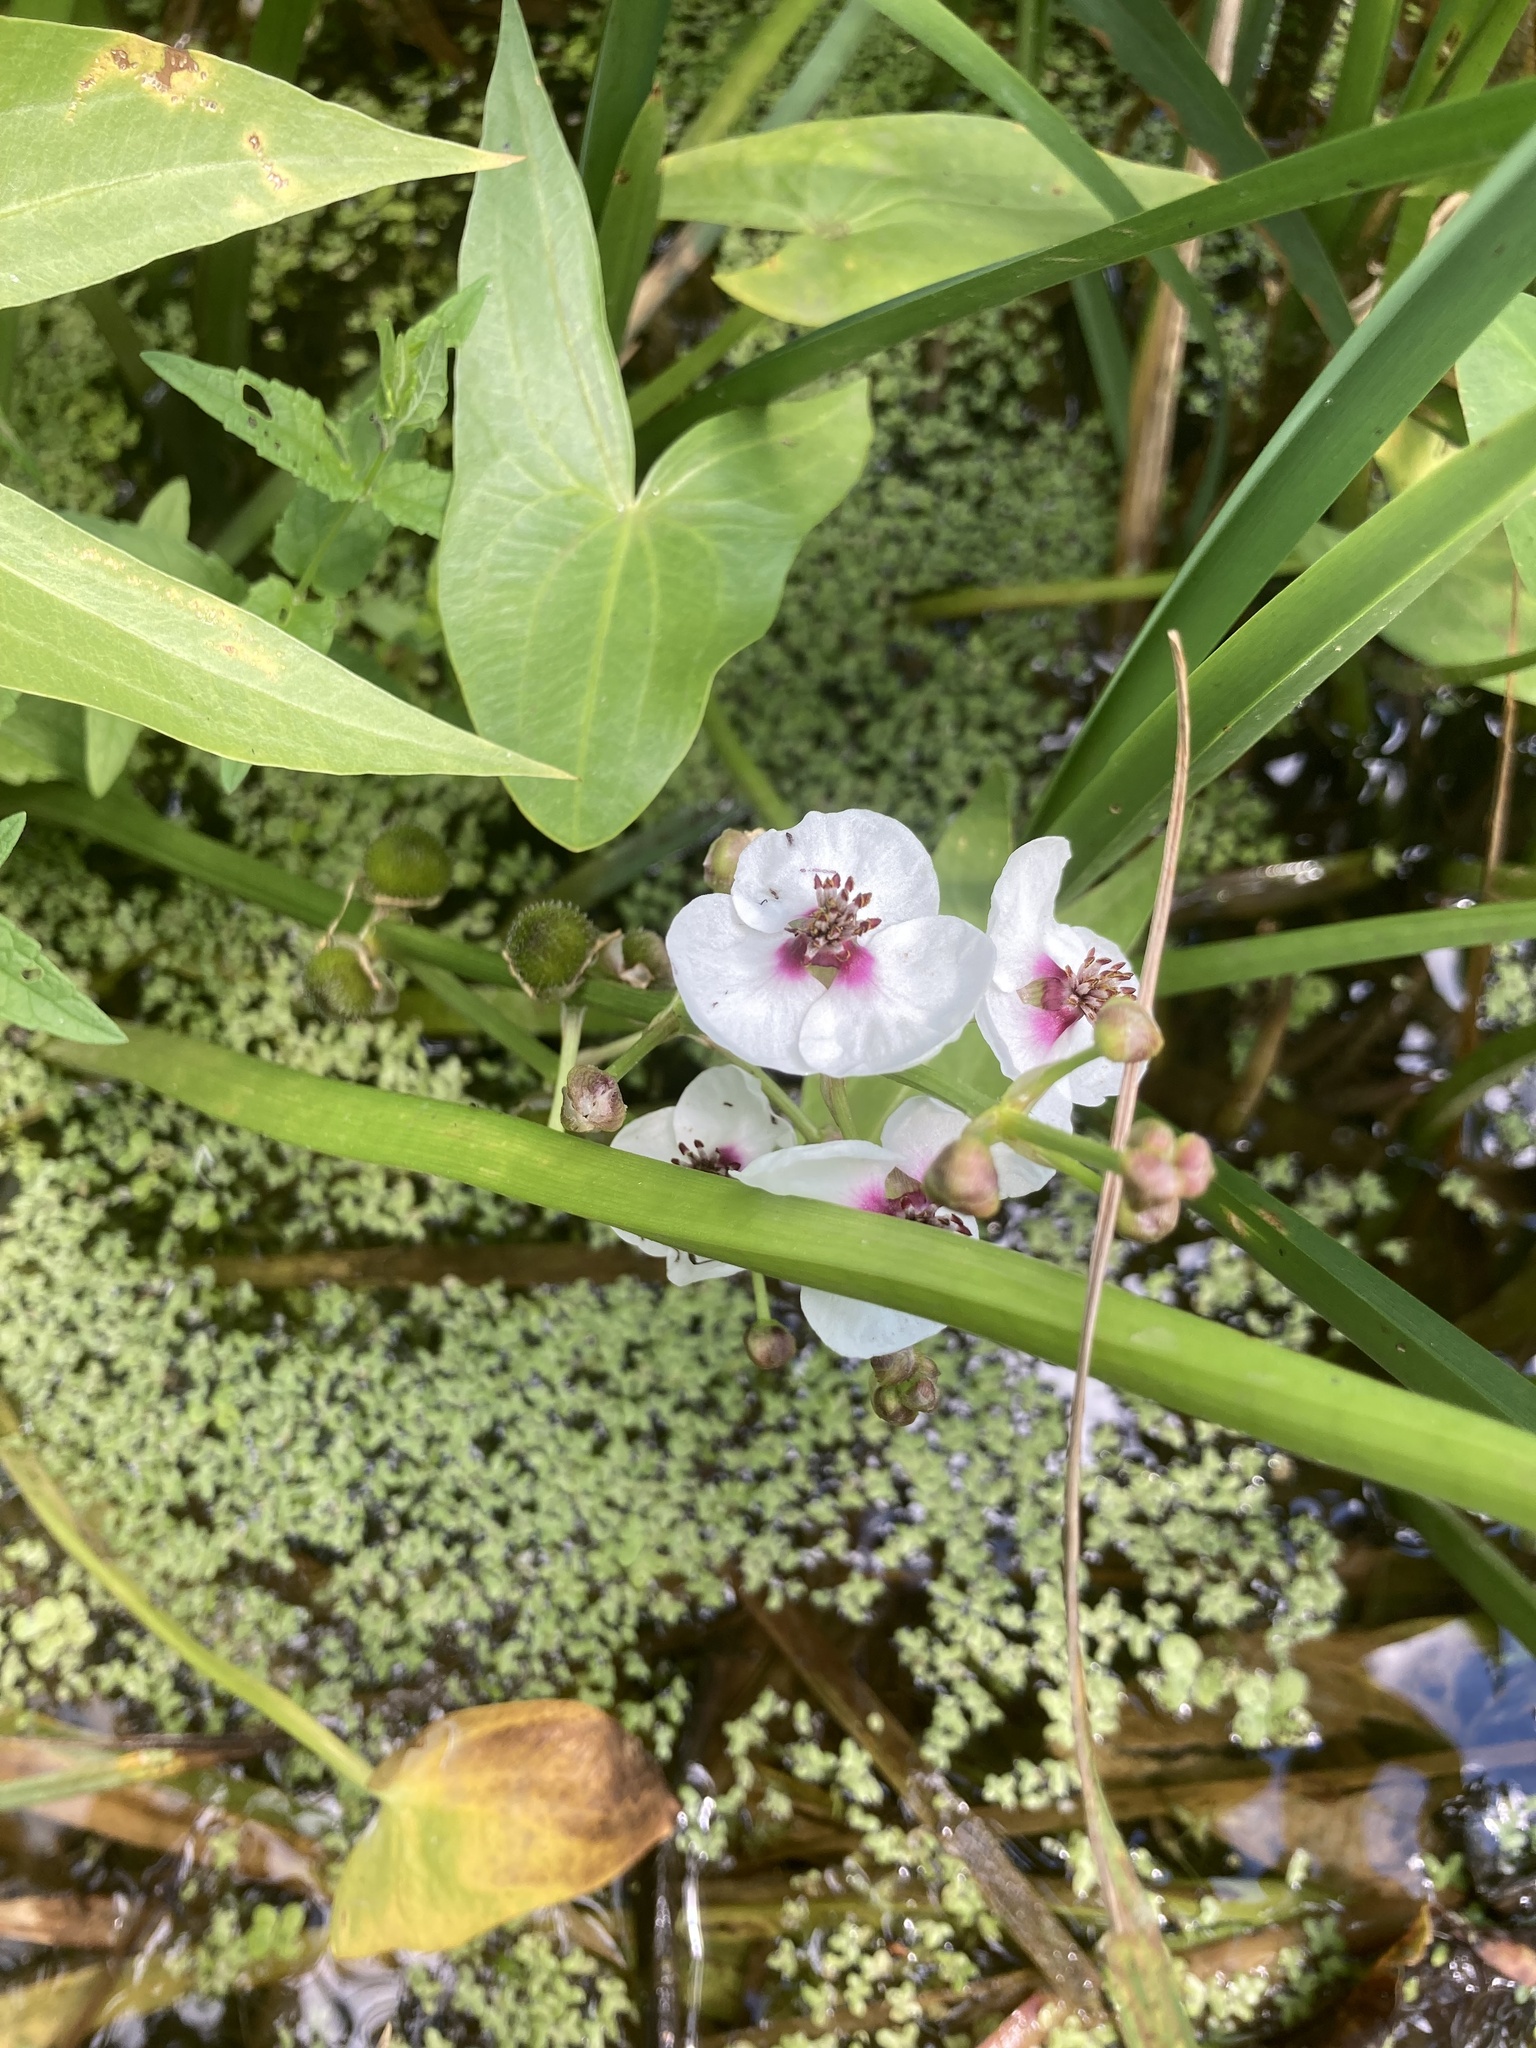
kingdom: Plantae
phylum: Tracheophyta
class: Liliopsida
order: Alismatales
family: Alismataceae
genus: Sagittaria
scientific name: Sagittaria sagittifolia
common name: Arrowhead
